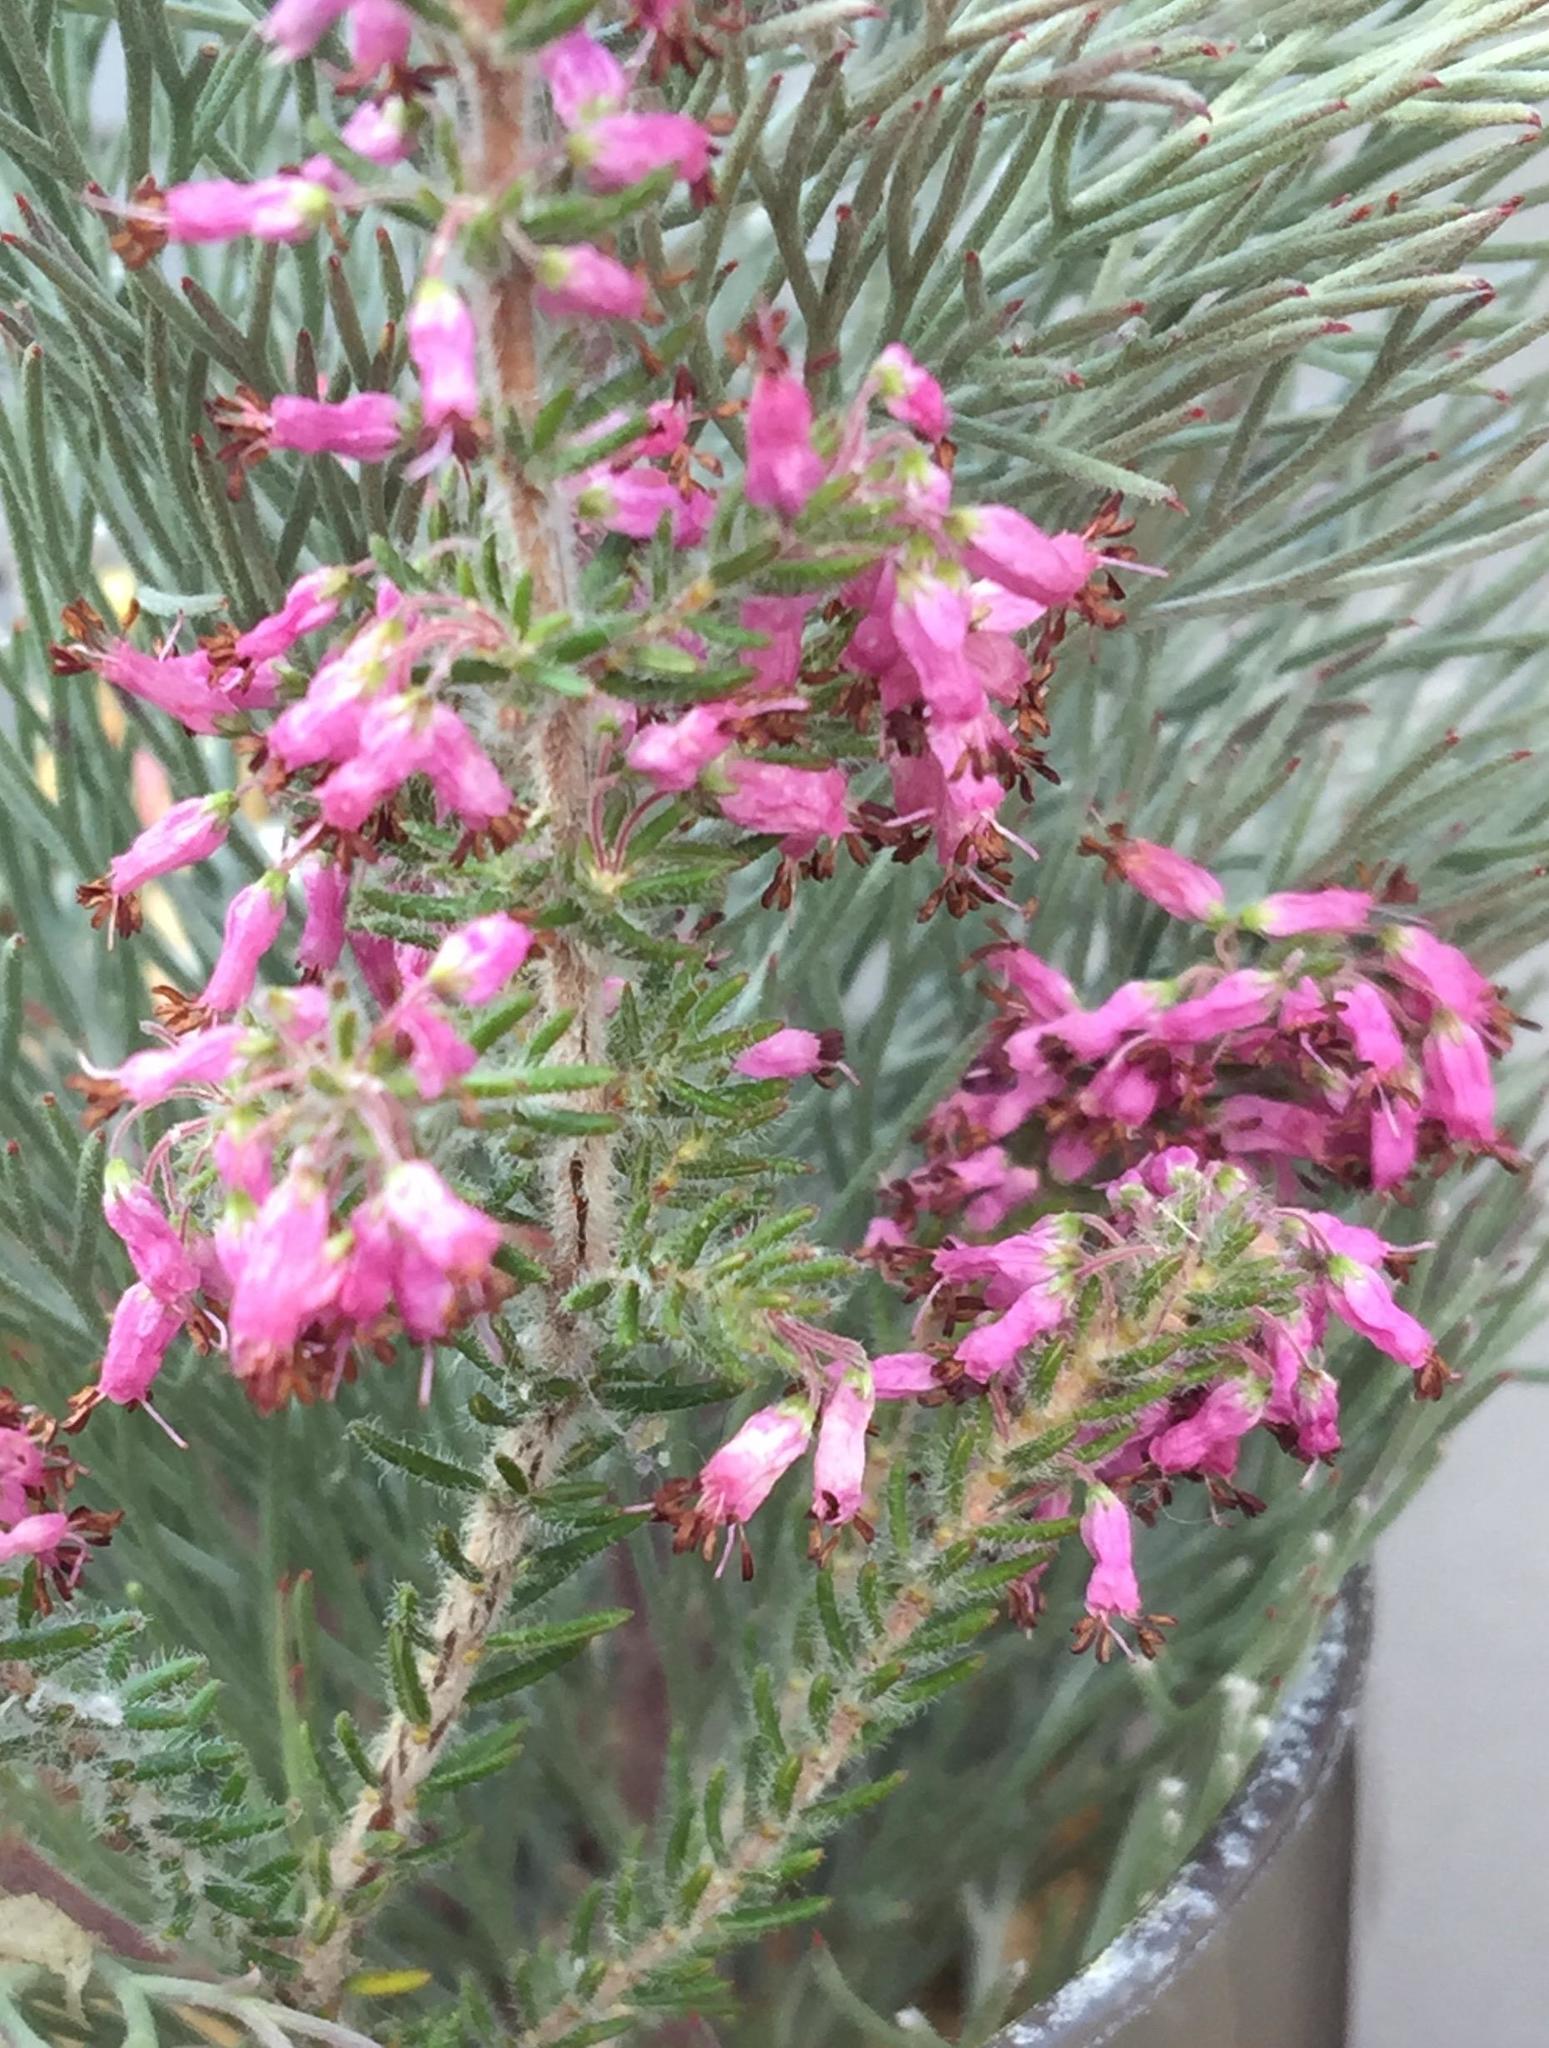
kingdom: Plantae
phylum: Tracheophyta
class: Magnoliopsida
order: Ericales
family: Ericaceae
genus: Erica
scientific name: Erica nudiflora
